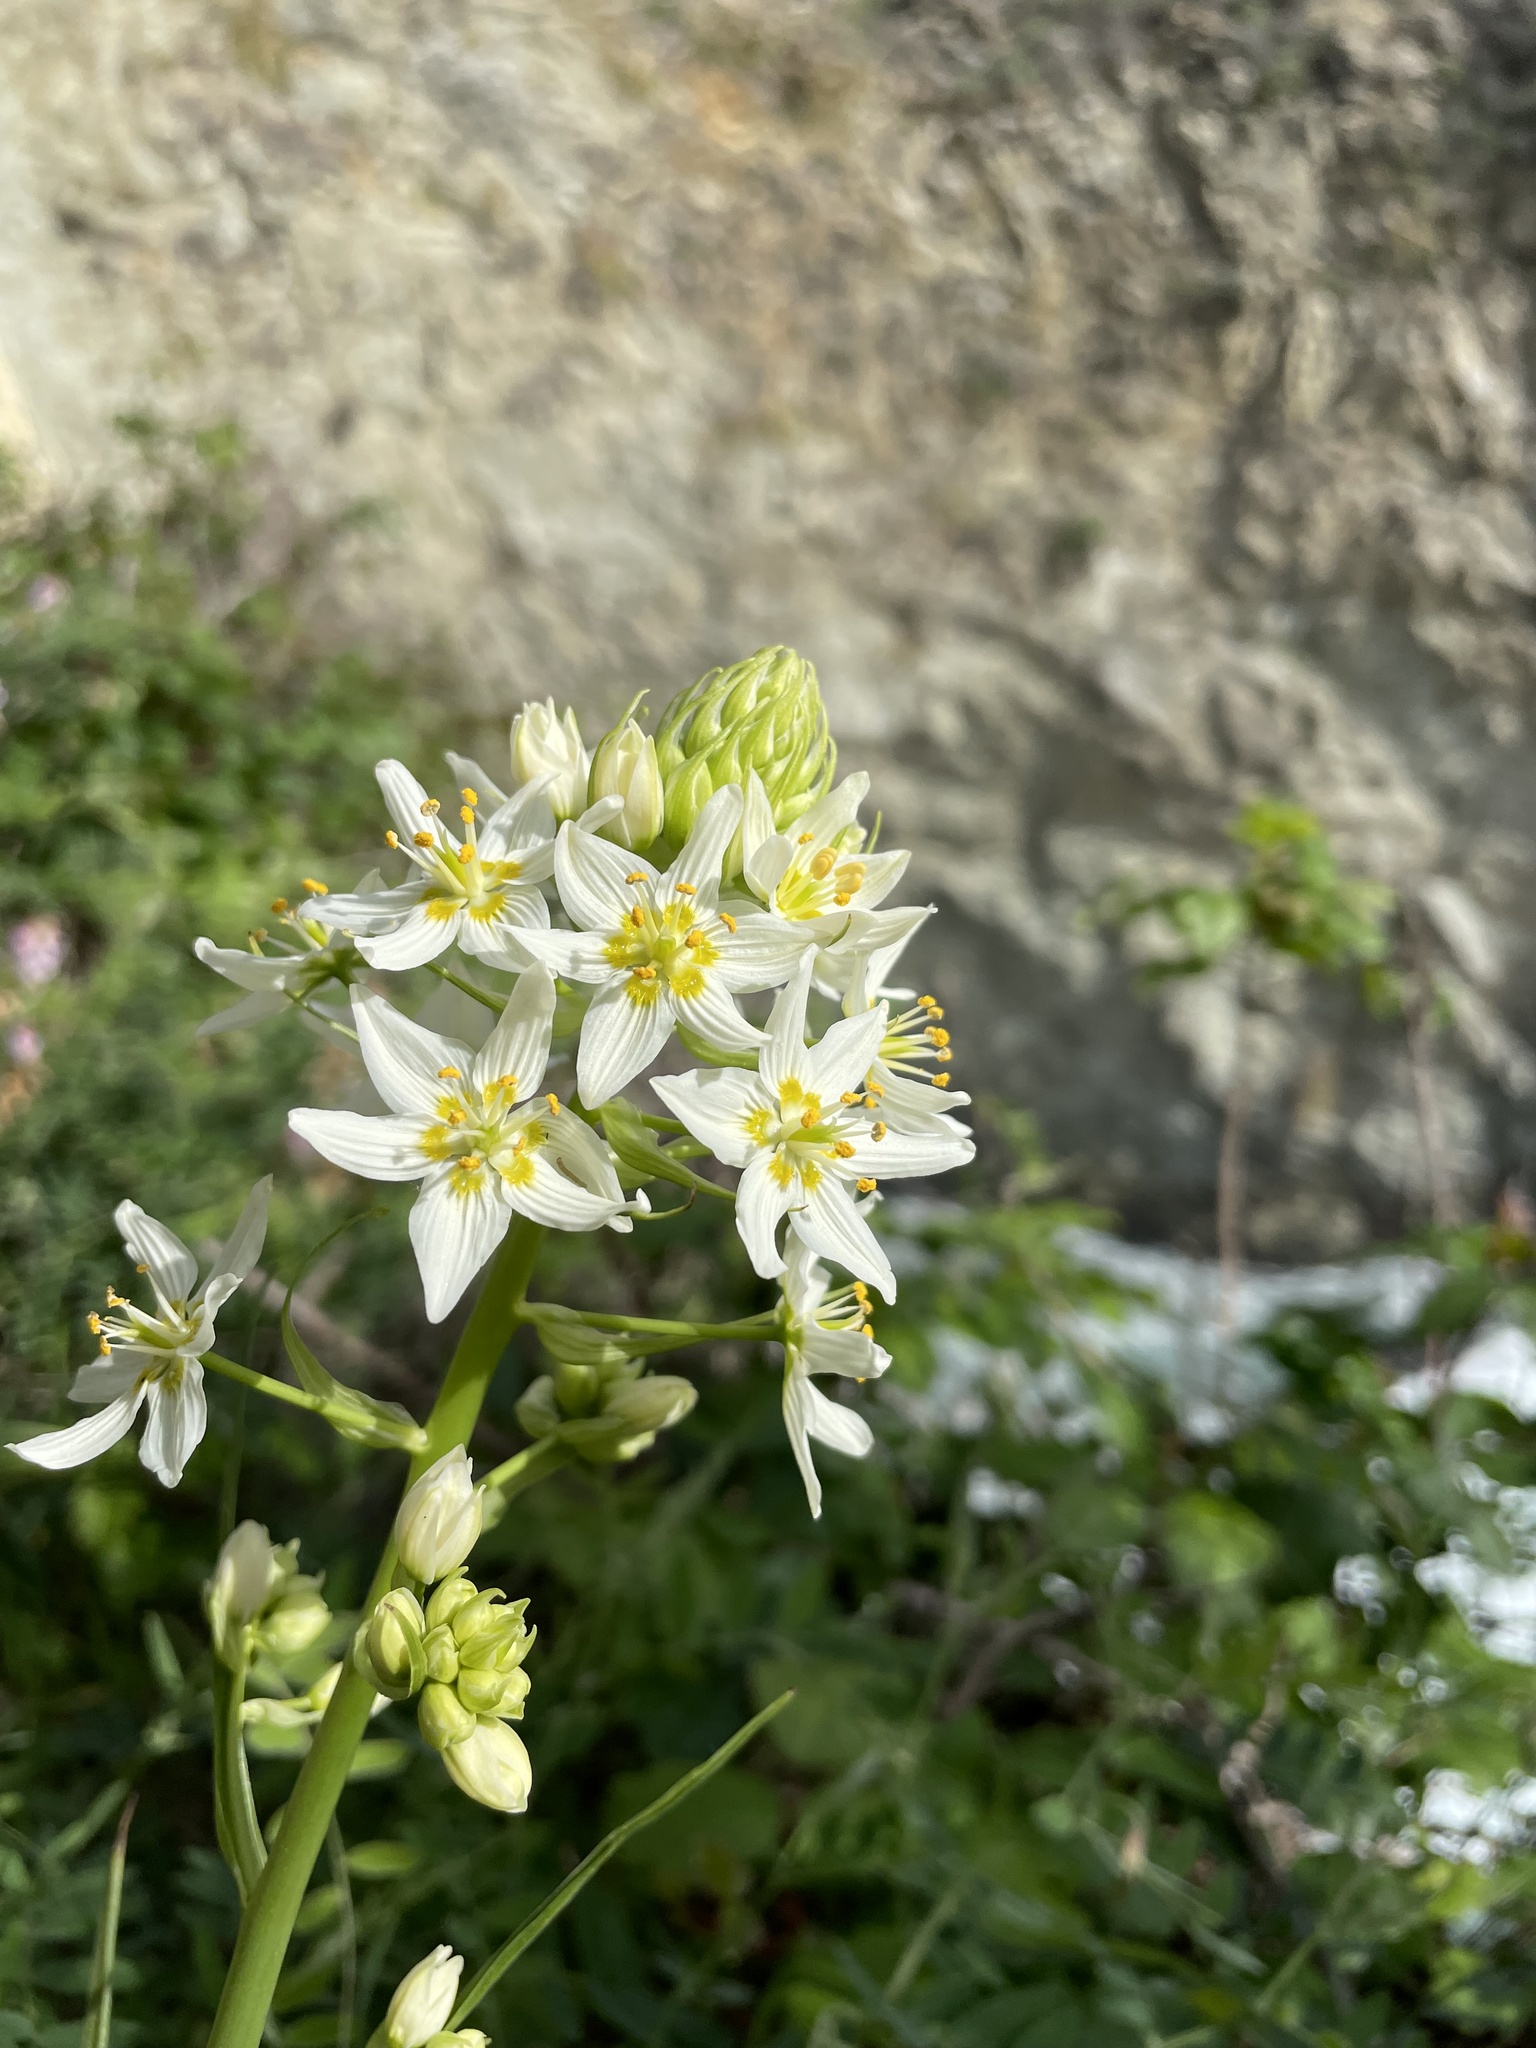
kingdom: Plantae
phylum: Tracheophyta
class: Liliopsida
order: Liliales
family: Melanthiaceae
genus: Toxicoscordion
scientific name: Toxicoscordion fremontii
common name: Fremont's death camas
